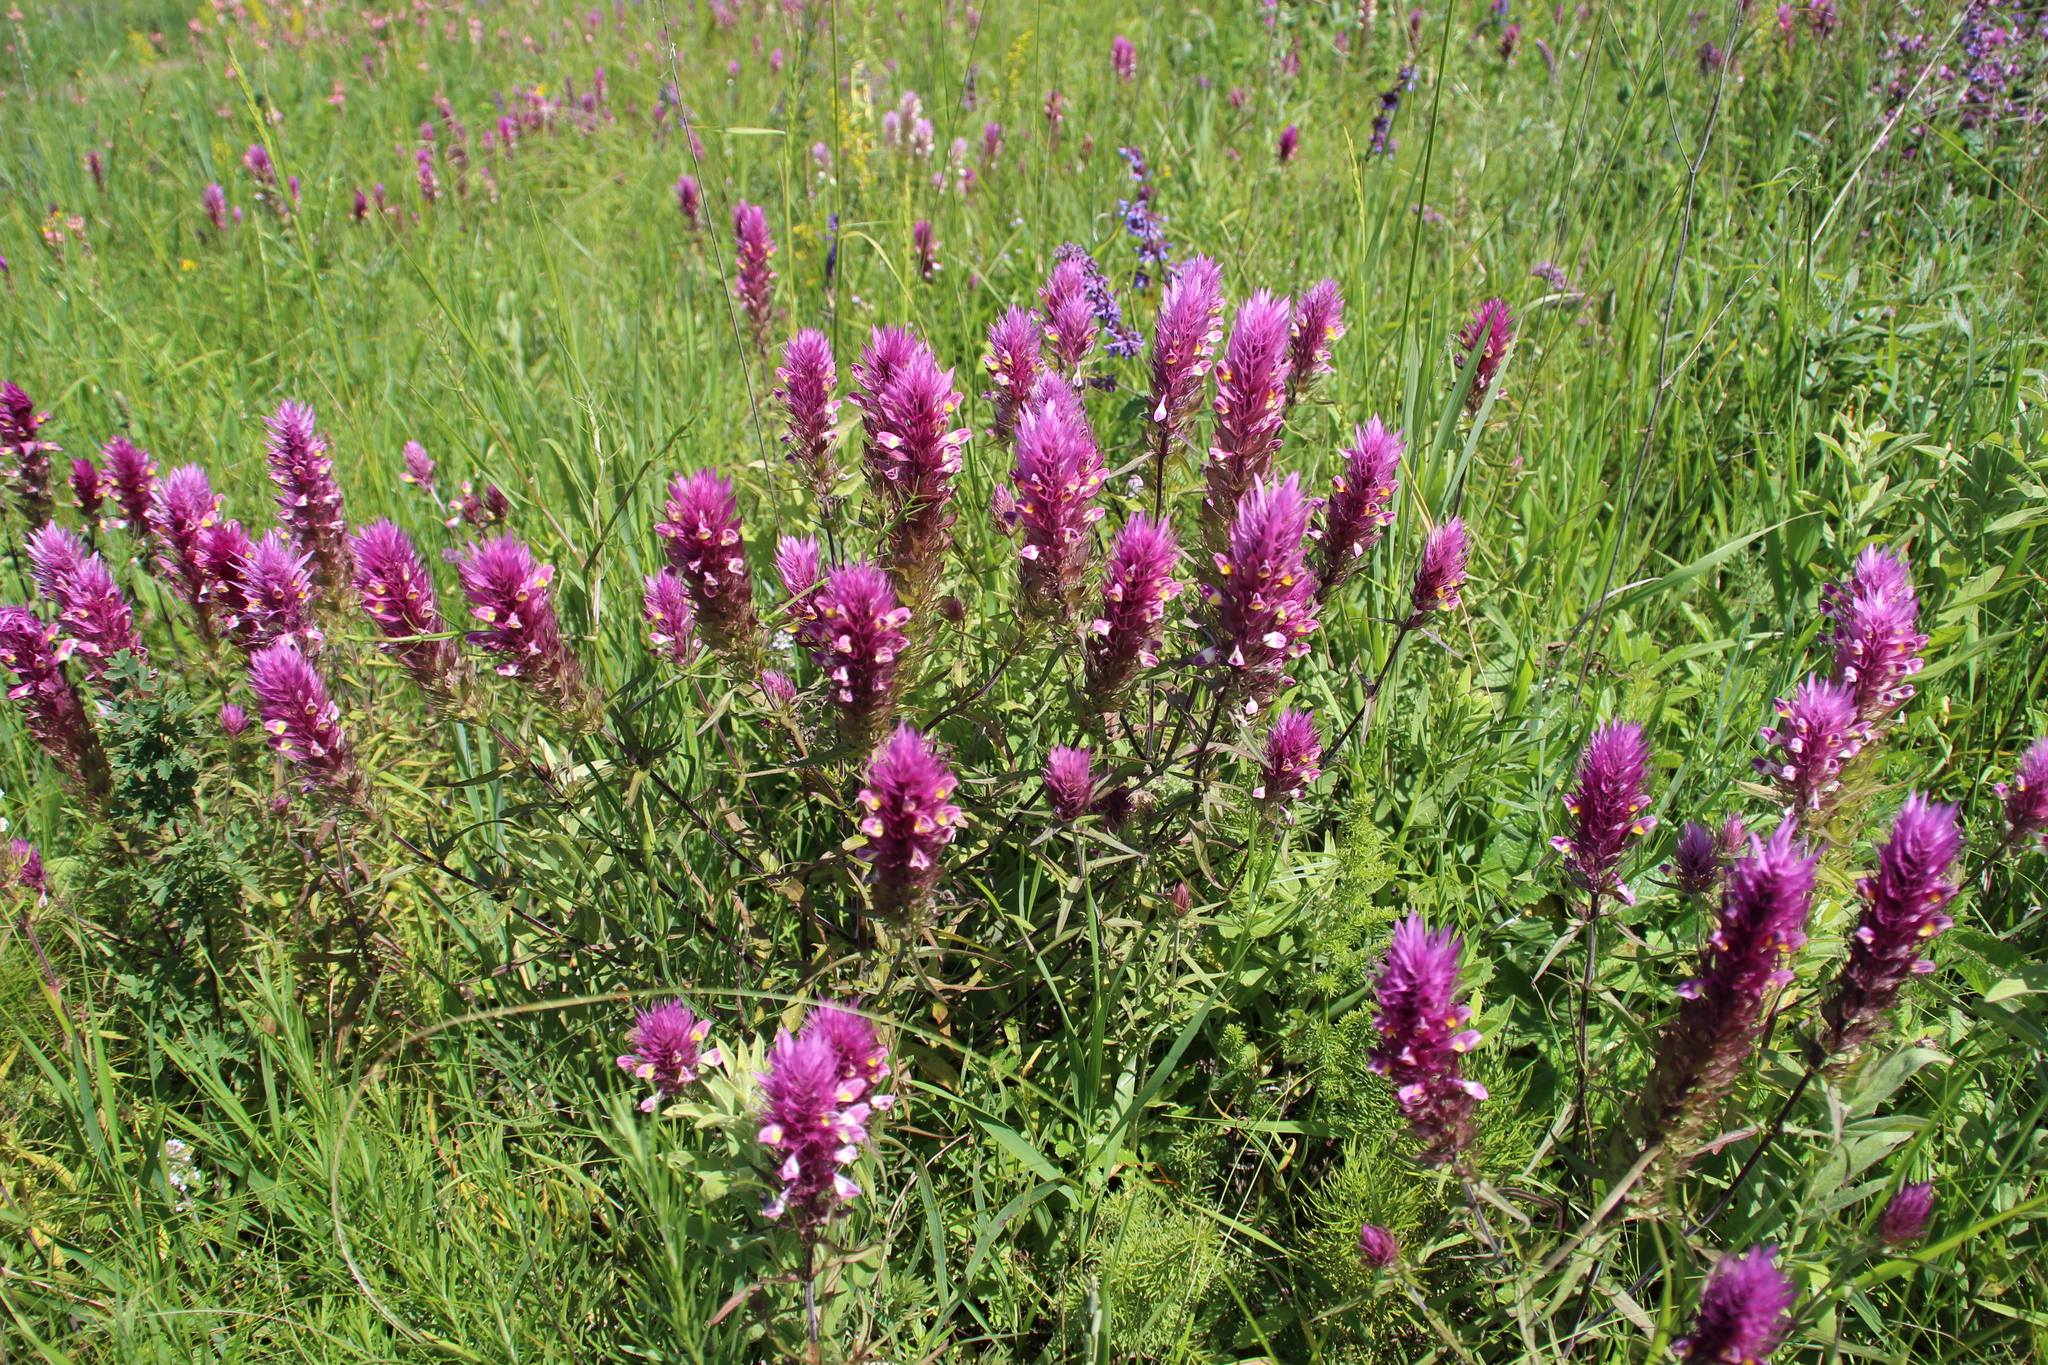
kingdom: Plantae
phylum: Tracheophyta
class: Magnoliopsida
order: Lamiales
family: Orobanchaceae
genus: Melampyrum
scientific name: Melampyrum arvense
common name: Field cow-wheat
